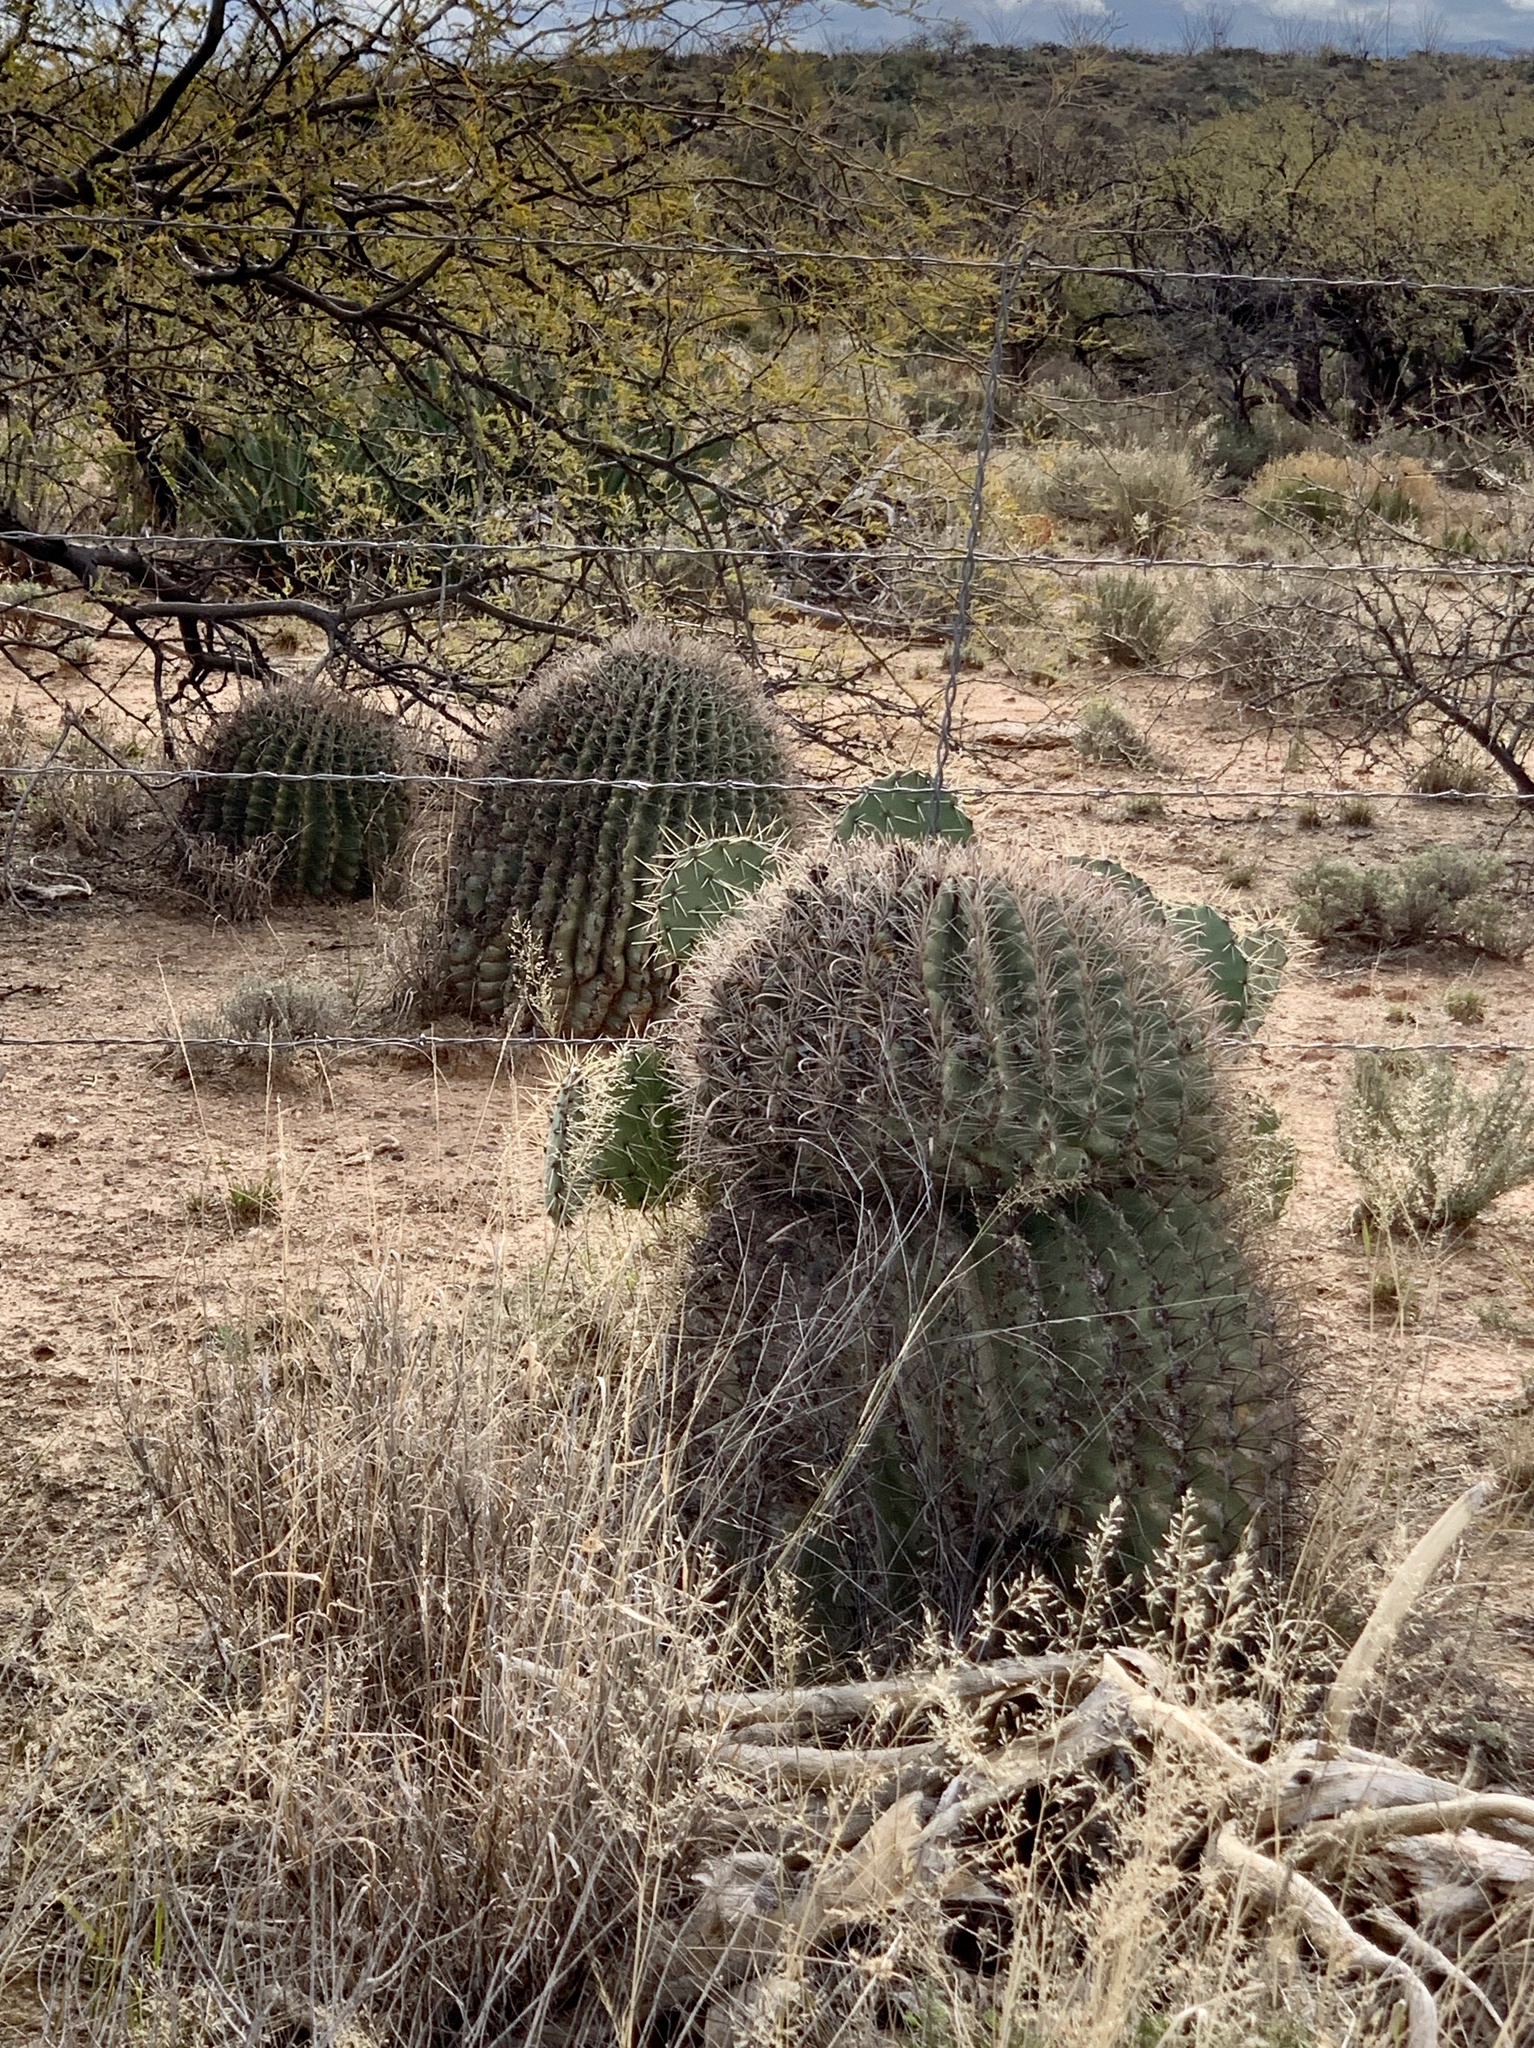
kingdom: Plantae
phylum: Tracheophyta
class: Magnoliopsida
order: Caryophyllales
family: Cactaceae
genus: Ferocactus
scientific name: Ferocactus wislizeni
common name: Candy barrel cactus
